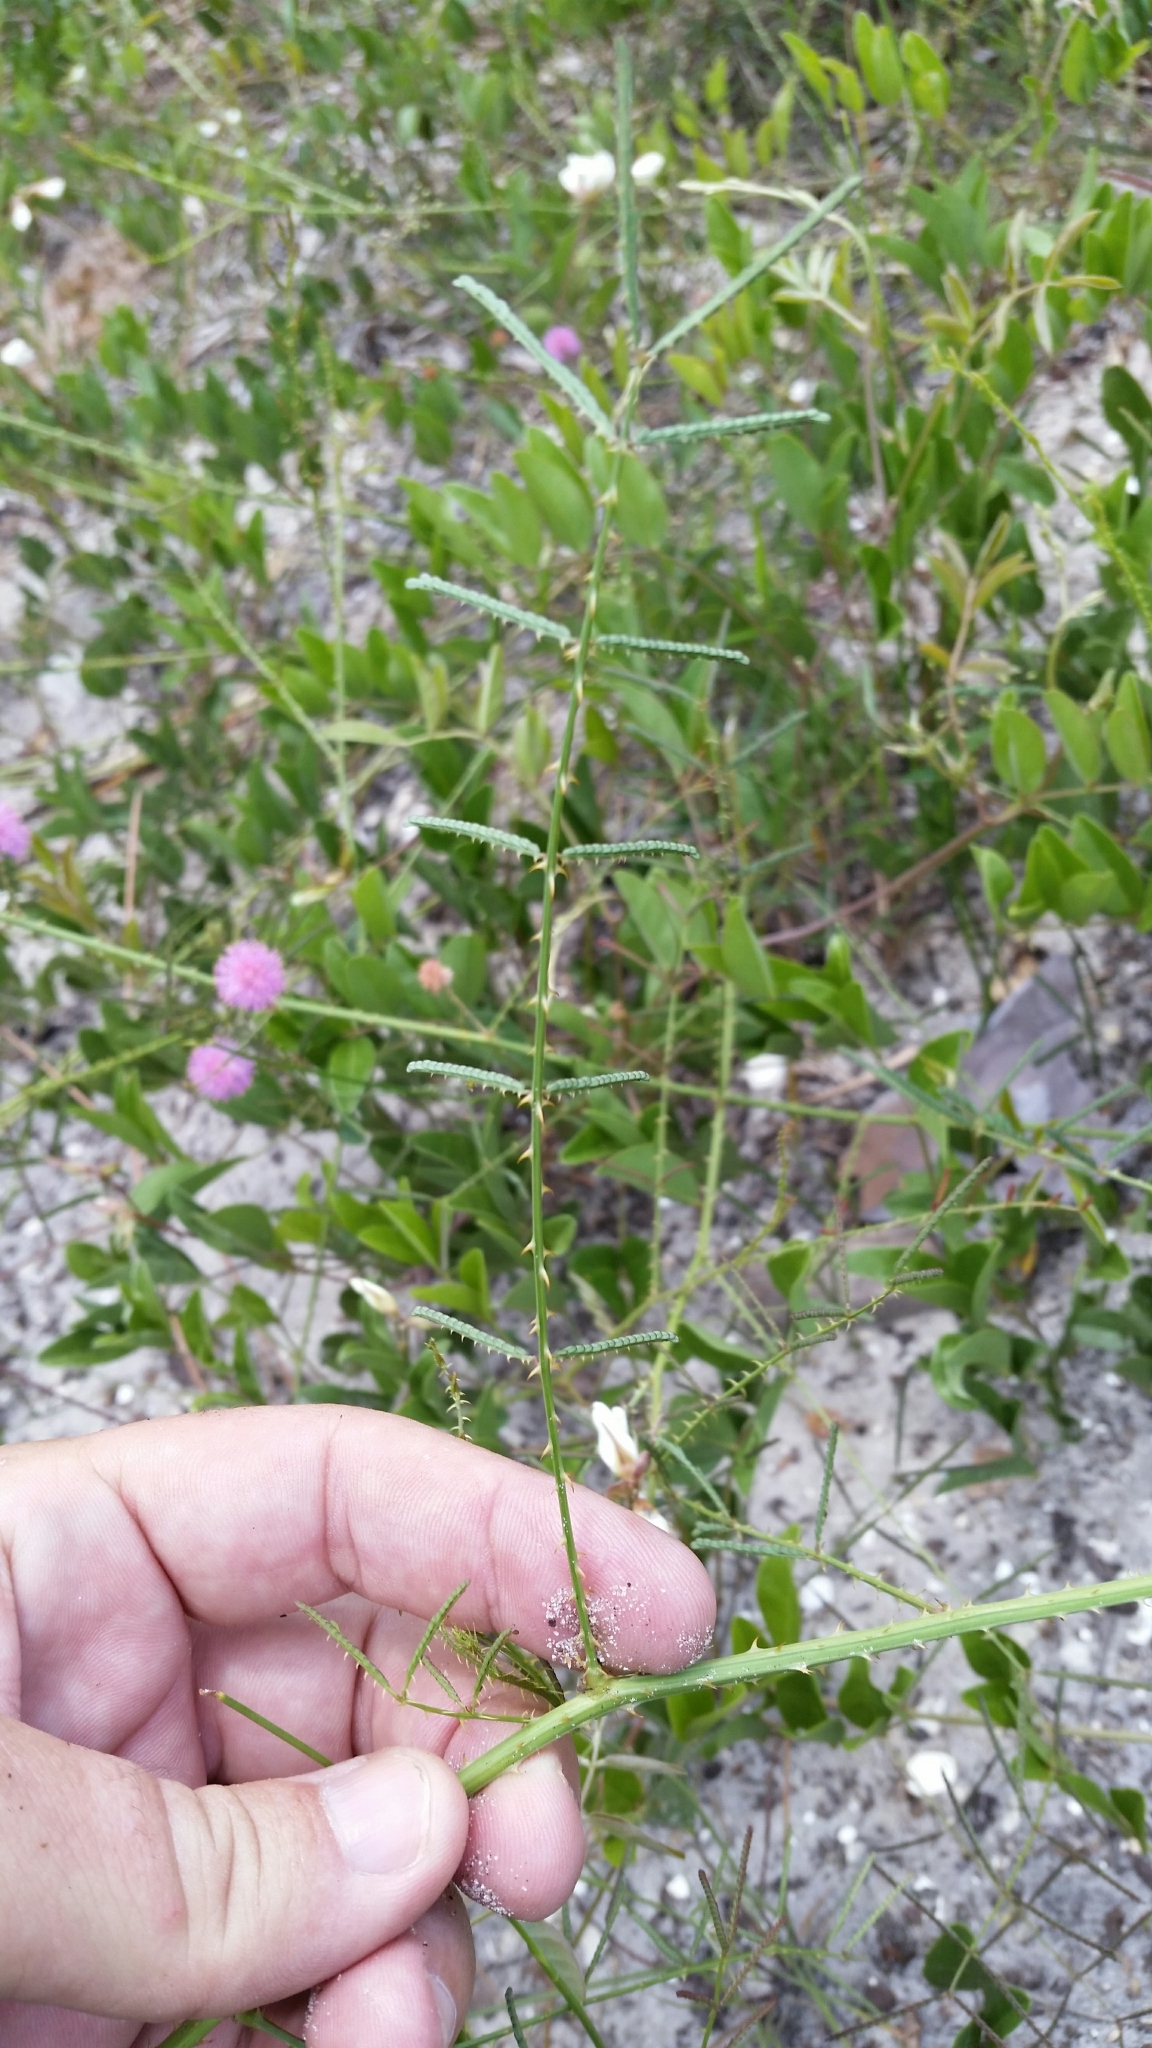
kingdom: Plantae
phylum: Tracheophyta
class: Magnoliopsida
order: Fabales
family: Fabaceae
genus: Mimosa
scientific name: Mimosa floridana
